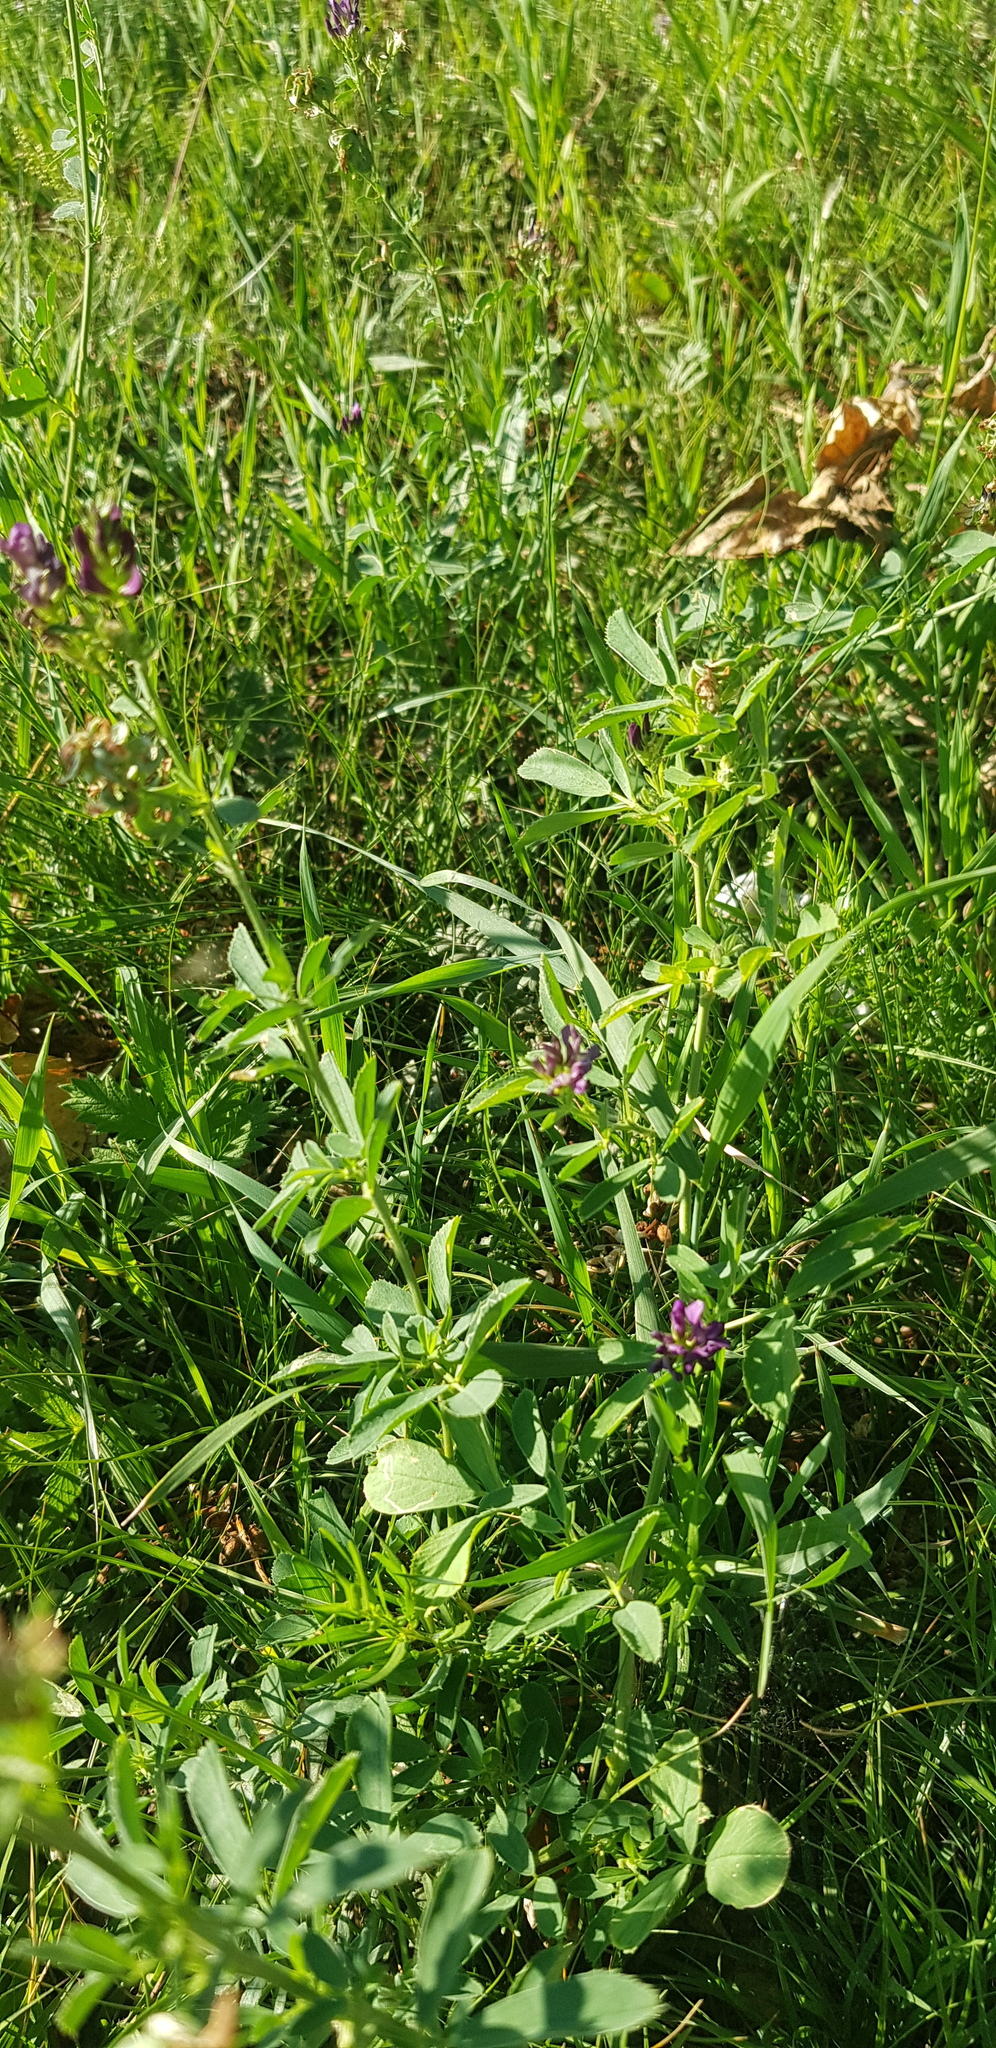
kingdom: Plantae
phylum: Tracheophyta
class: Magnoliopsida
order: Fabales
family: Fabaceae
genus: Medicago
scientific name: Medicago sativa
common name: Alfalfa
